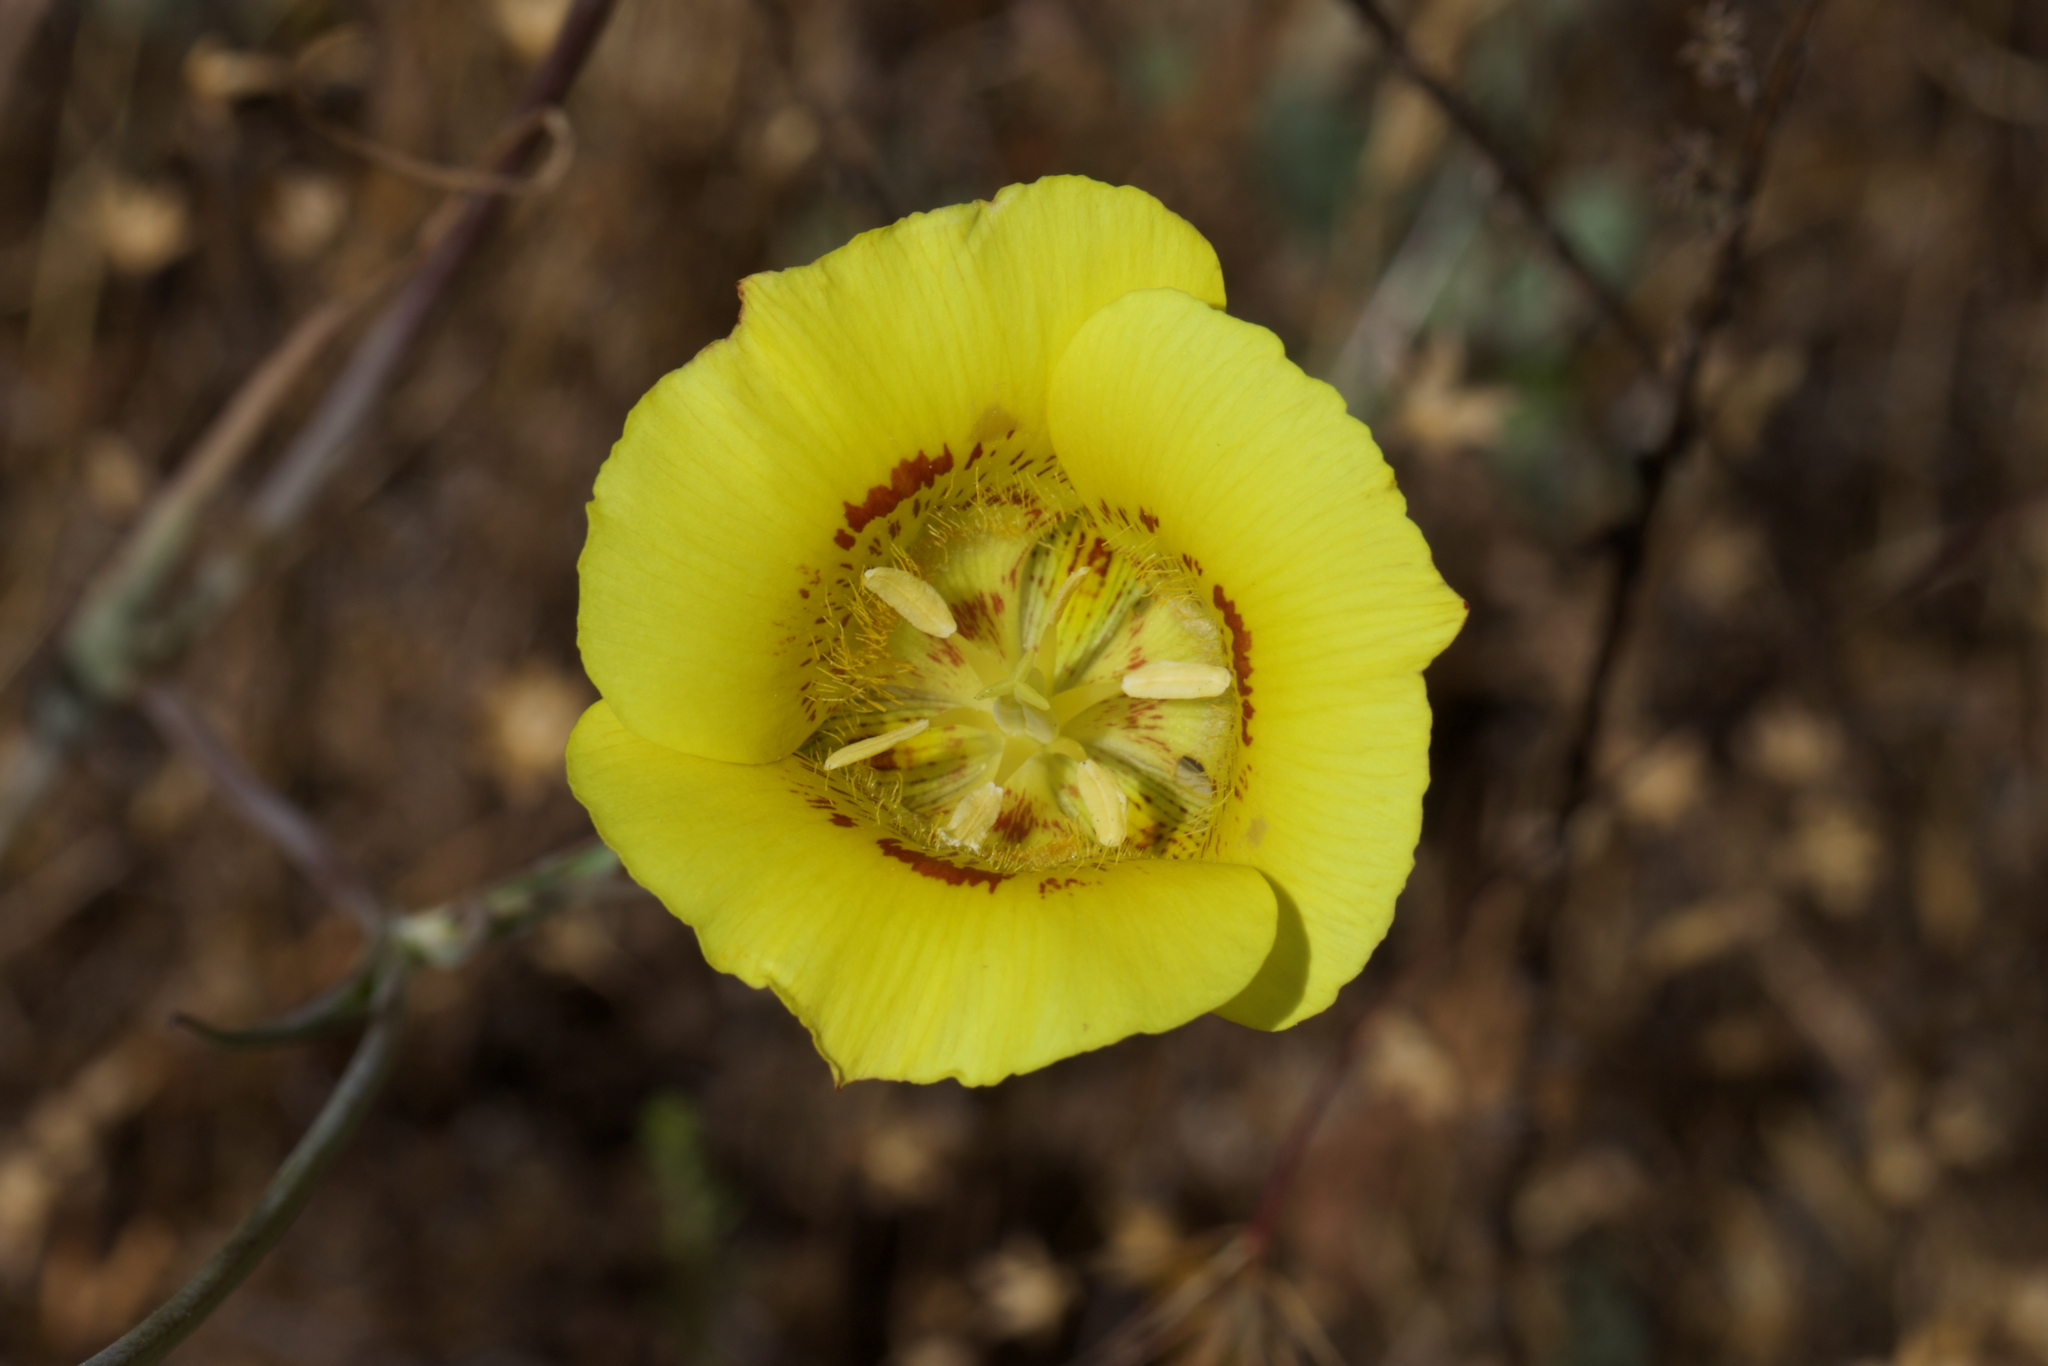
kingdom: Plantae
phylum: Tracheophyta
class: Liliopsida
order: Liliales
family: Liliaceae
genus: Calochortus
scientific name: Calochortus luteus
